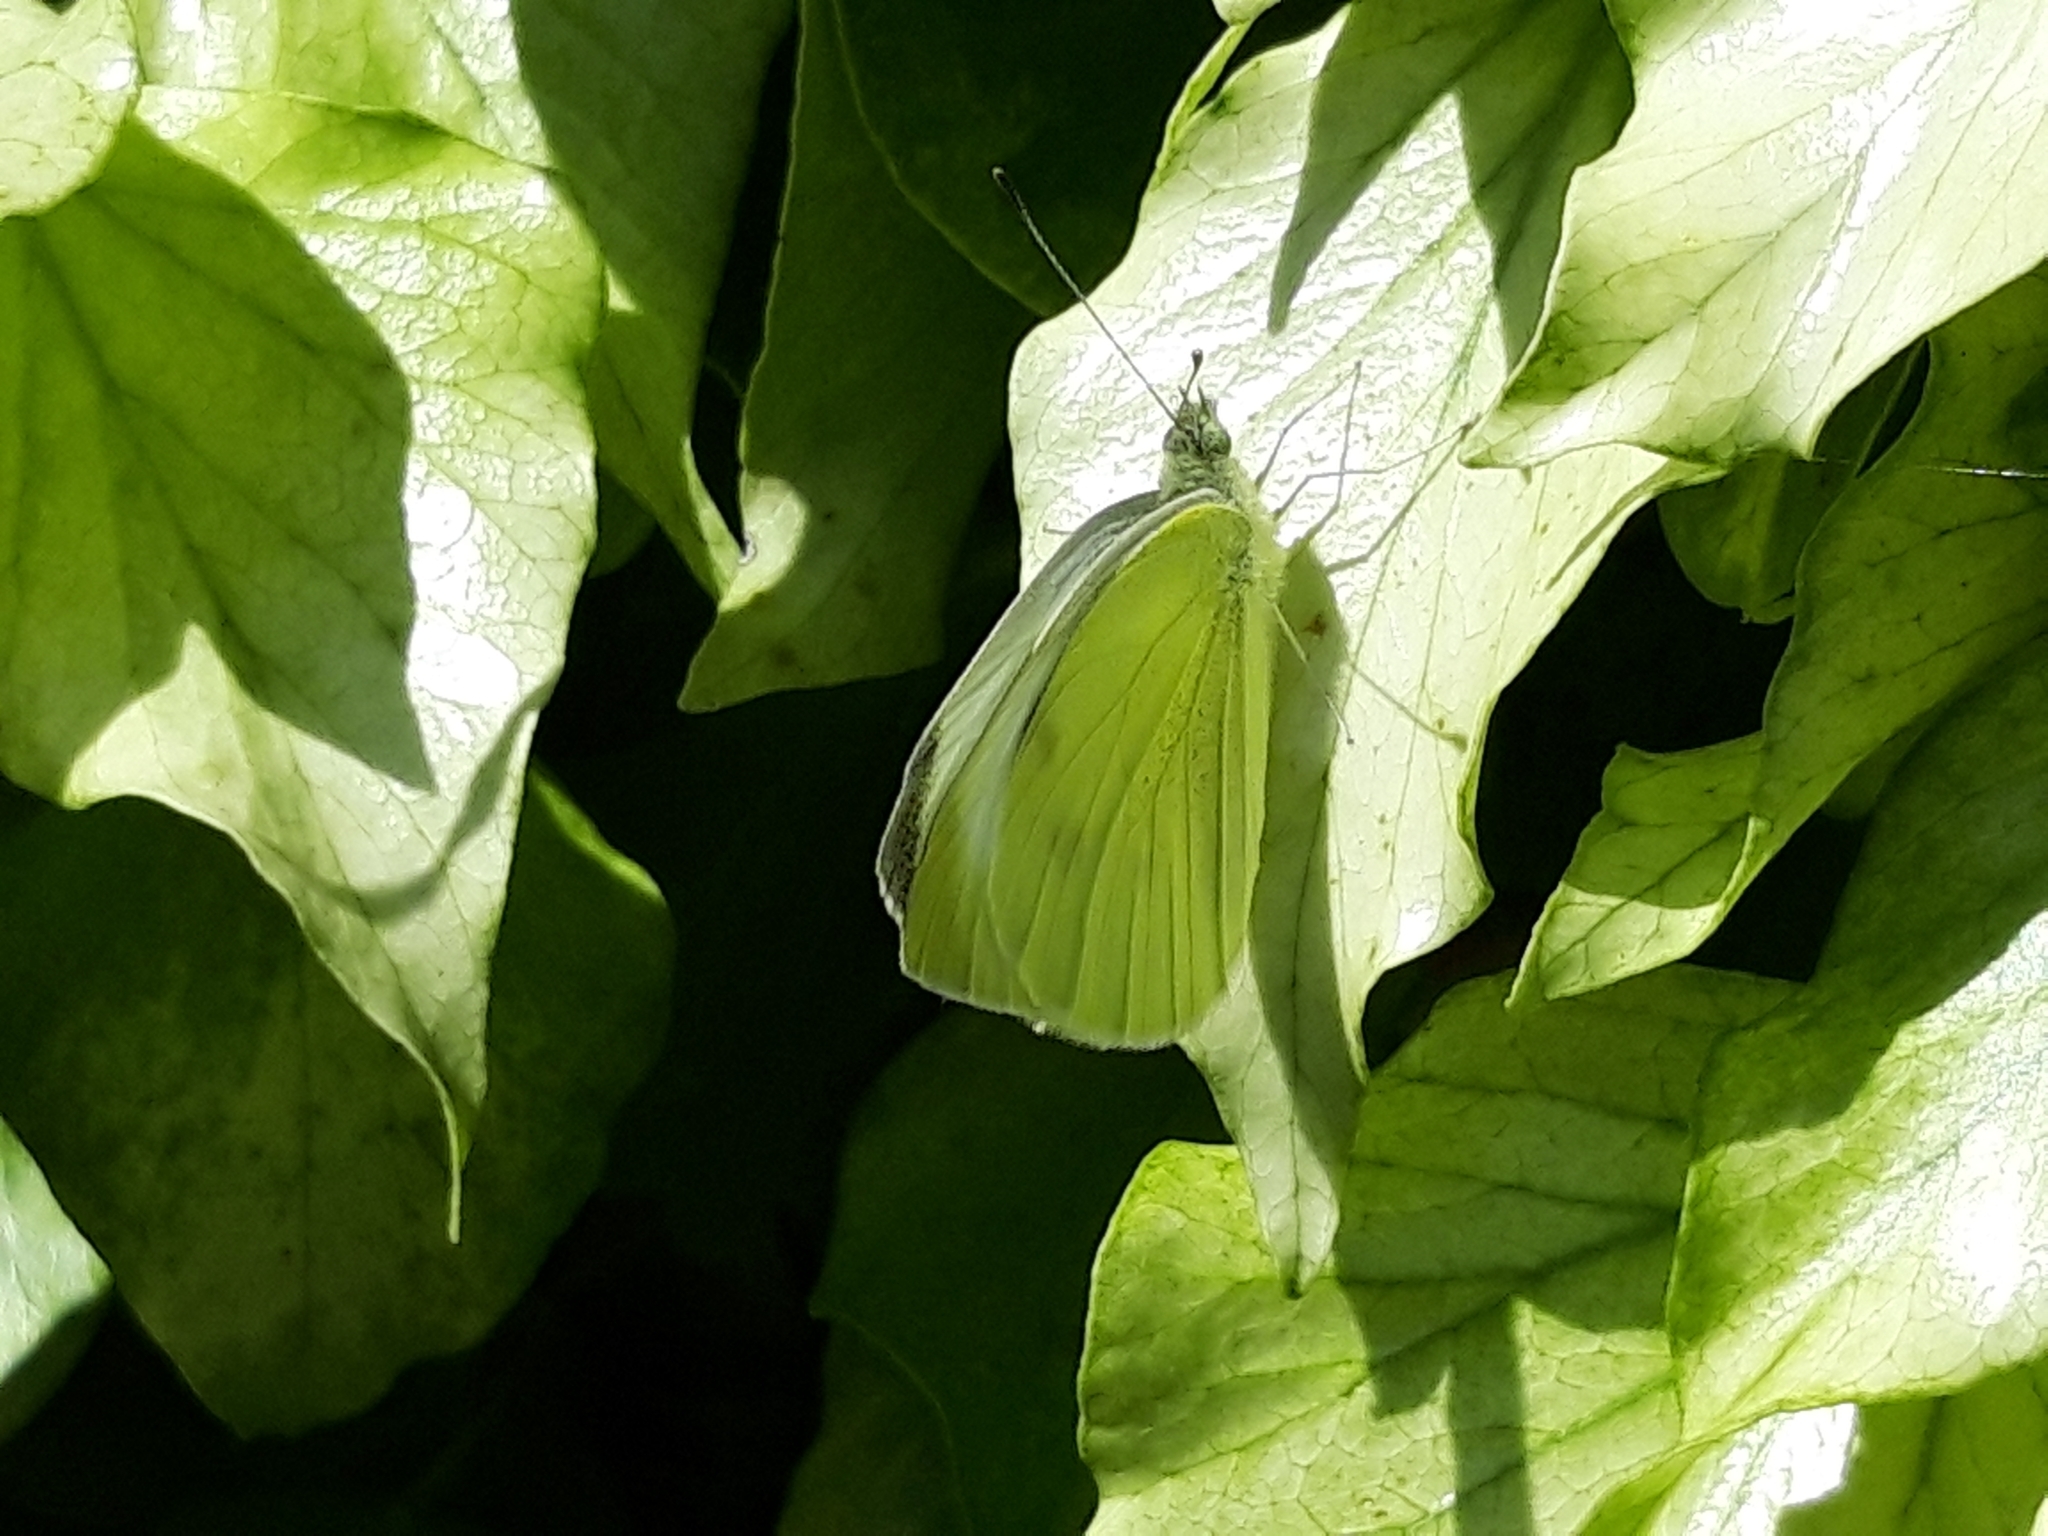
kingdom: Animalia
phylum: Arthropoda
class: Insecta
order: Lepidoptera
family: Pieridae
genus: Pieris
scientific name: Pieris rapae
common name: Small white
